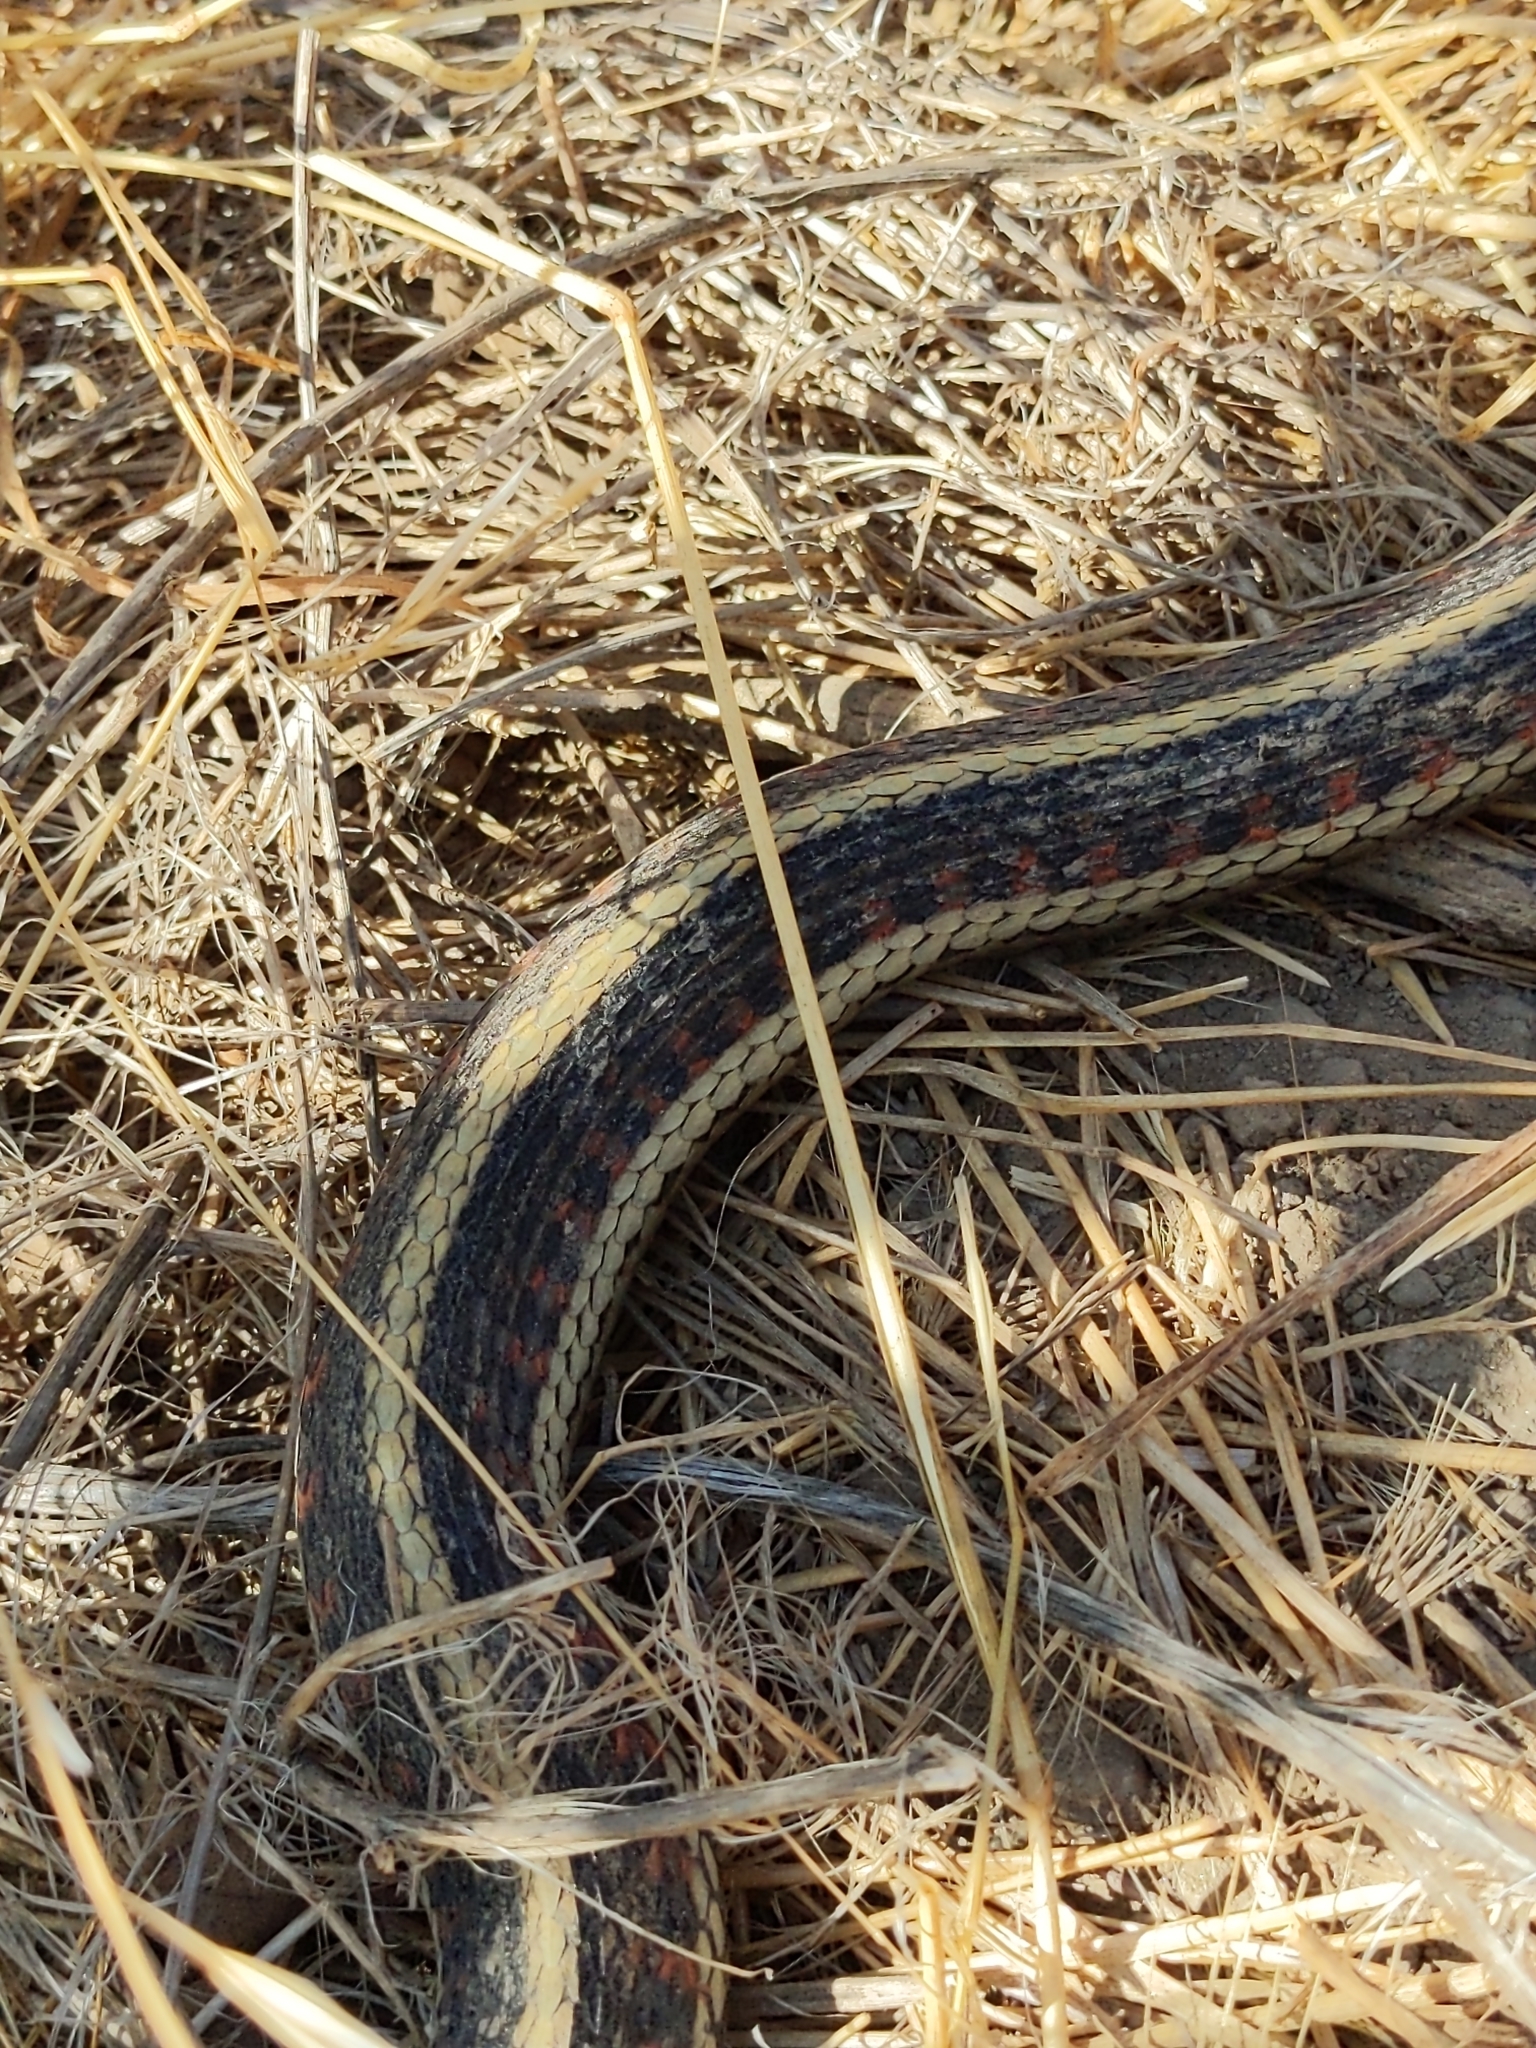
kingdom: Animalia
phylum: Chordata
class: Squamata
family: Colubridae
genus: Thamnophis
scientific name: Thamnophis sirtalis
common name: Common garter snake
